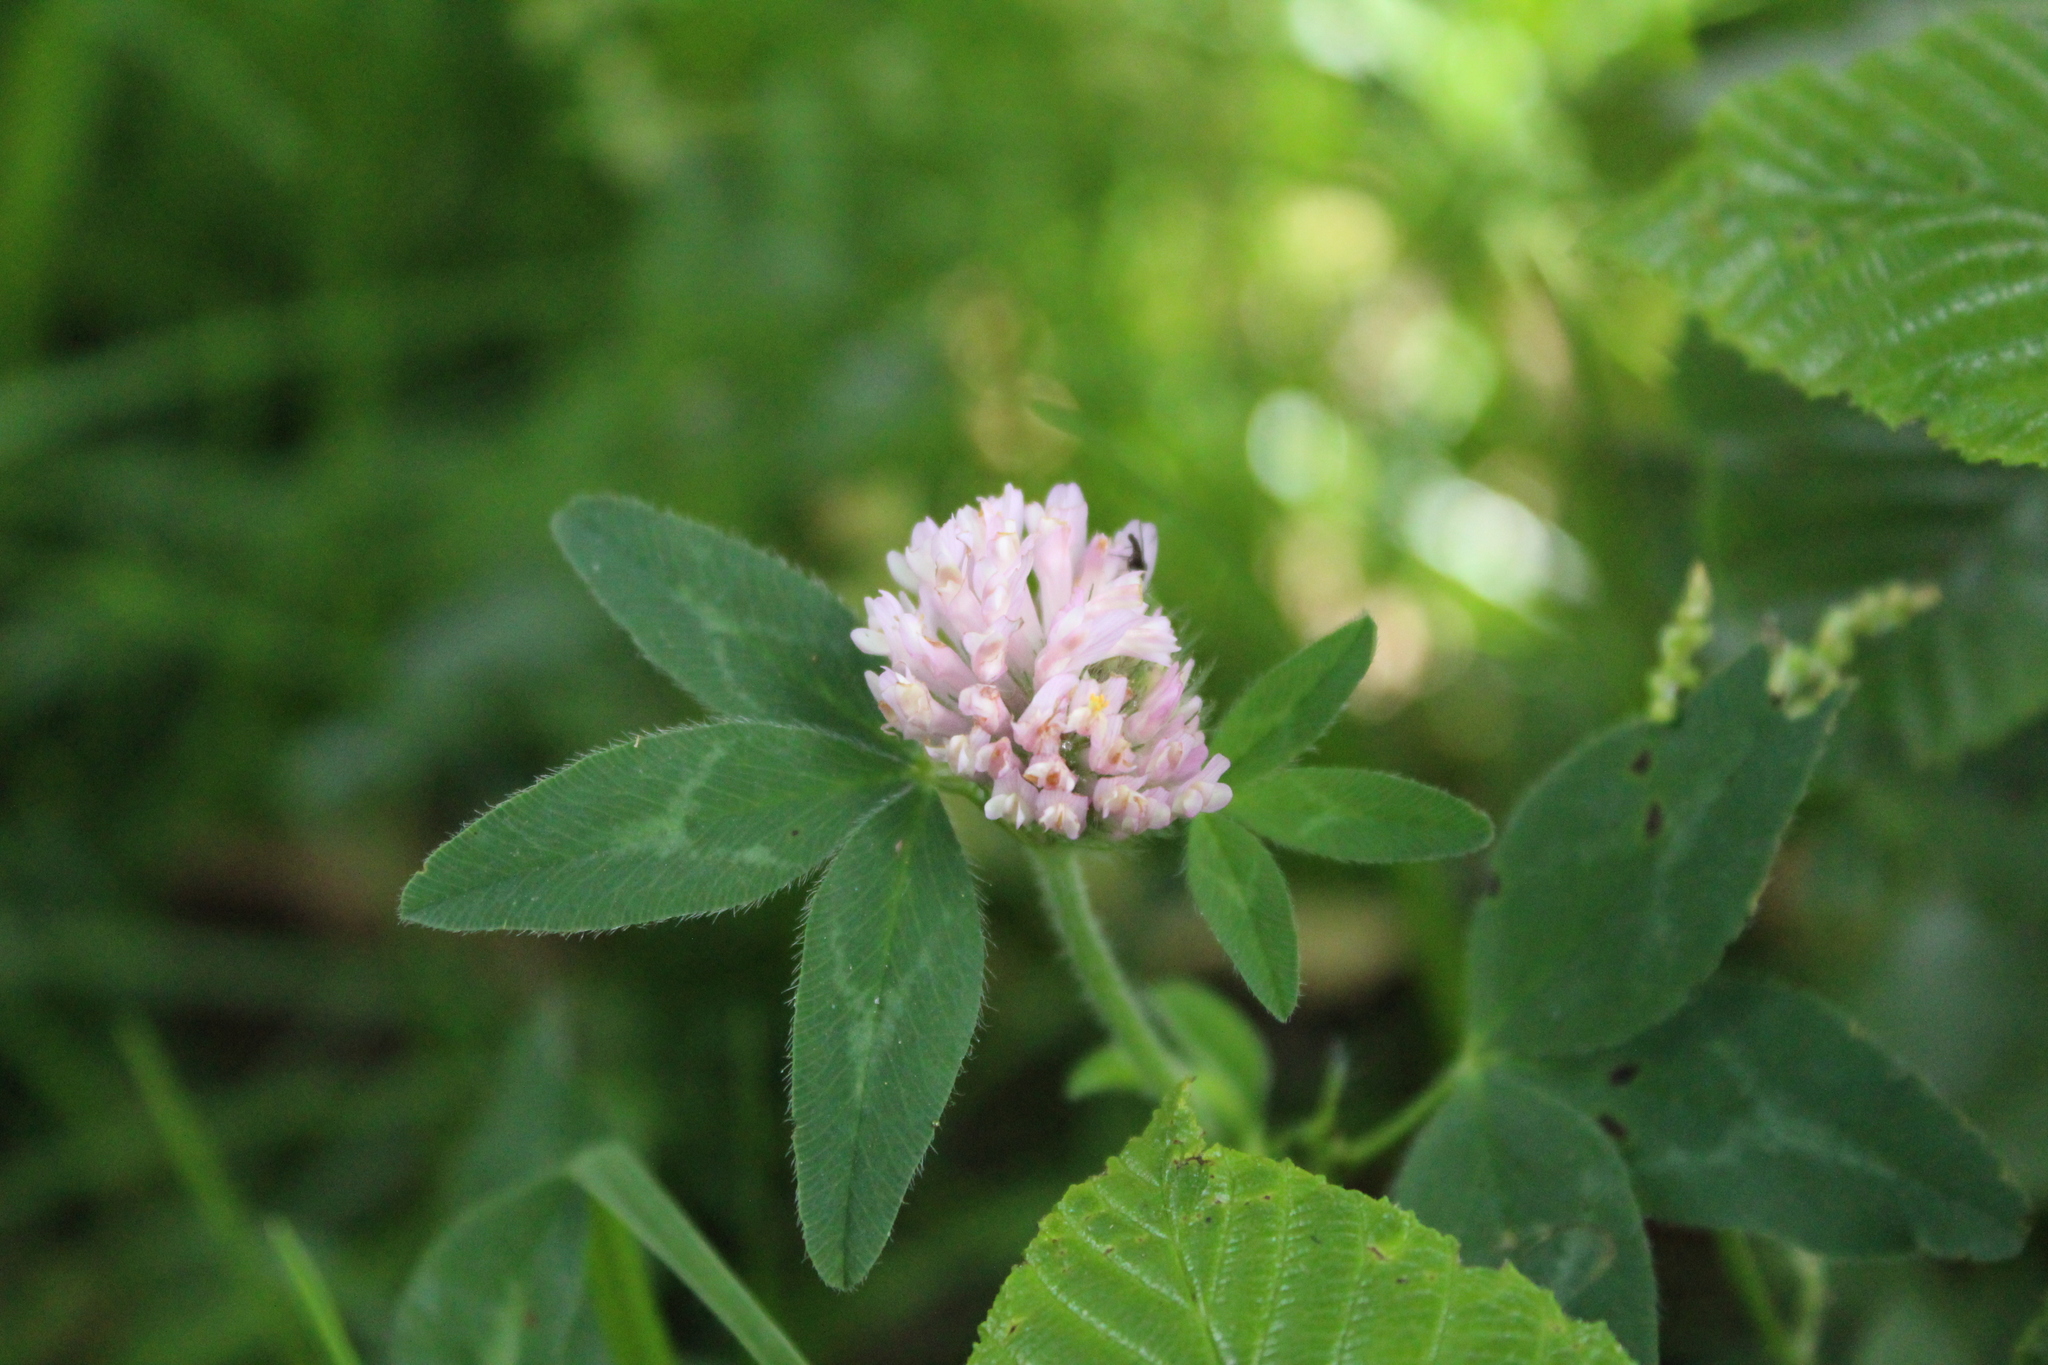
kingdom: Plantae
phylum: Tracheophyta
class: Magnoliopsida
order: Fabales
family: Fabaceae
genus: Trifolium
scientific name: Trifolium pratense
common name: Red clover
